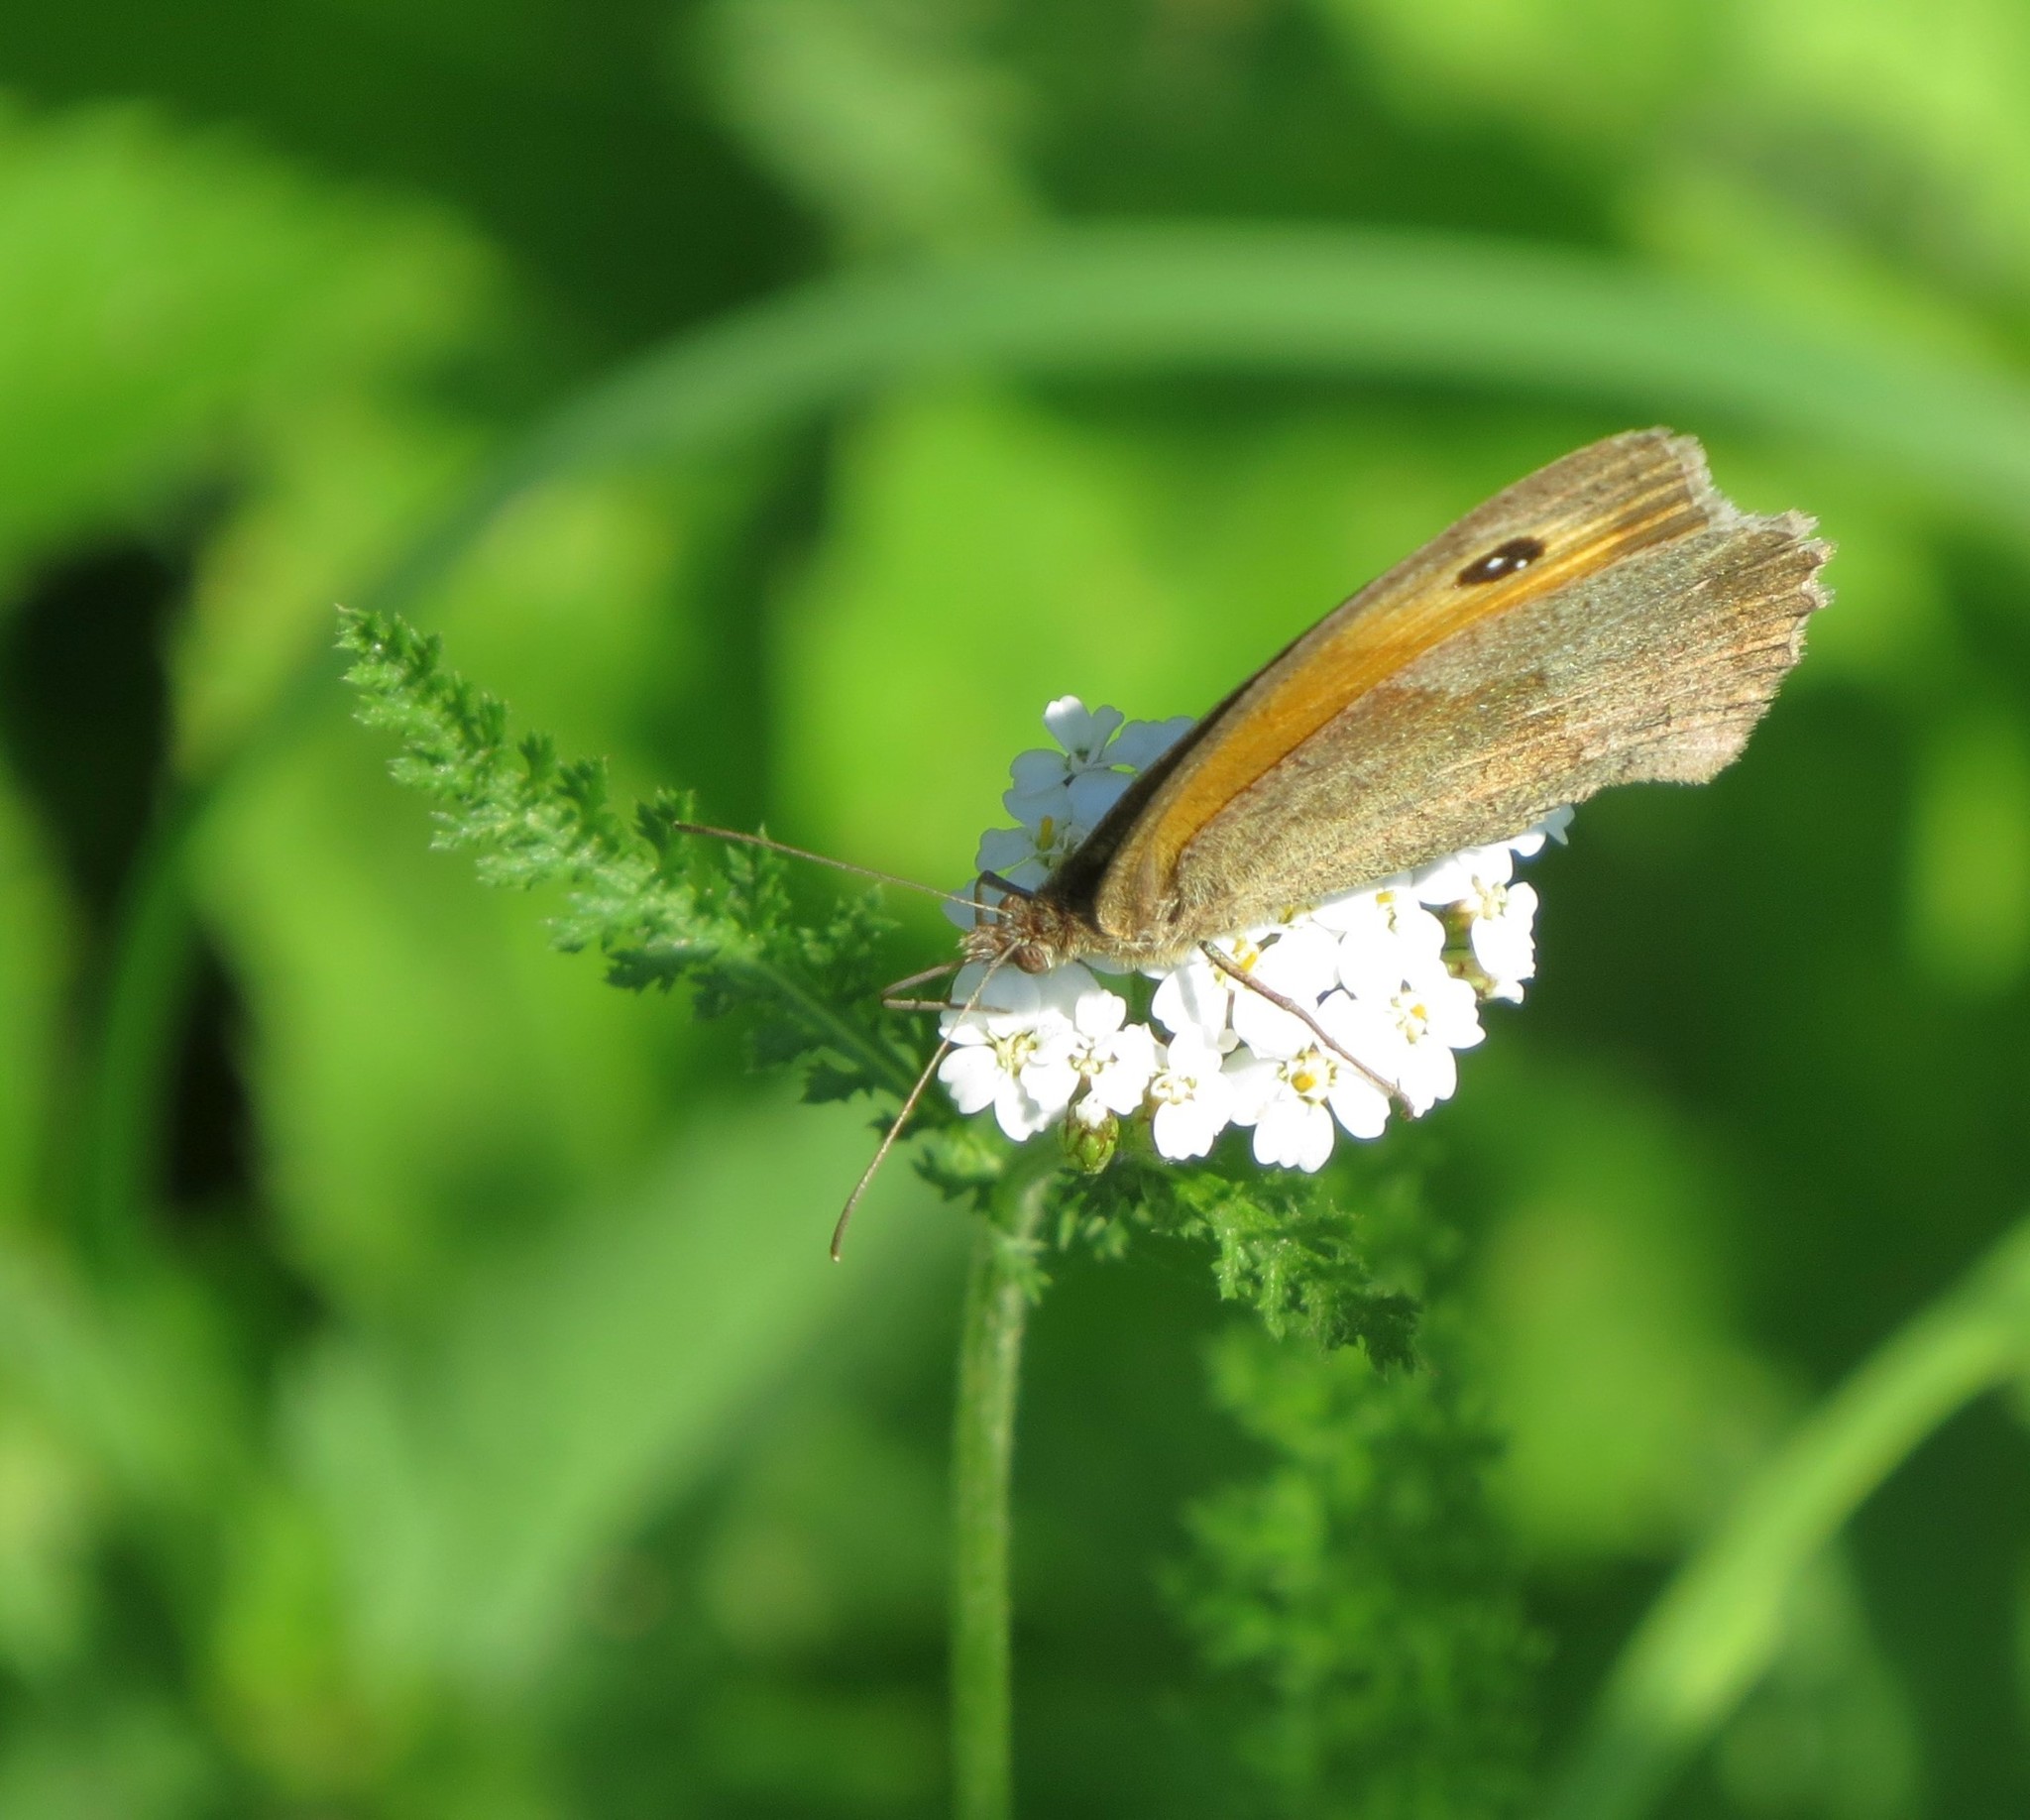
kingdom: Animalia
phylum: Arthropoda
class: Insecta
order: Lepidoptera
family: Nymphalidae
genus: Maniola
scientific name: Maniola jurtina
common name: Meadow brown
